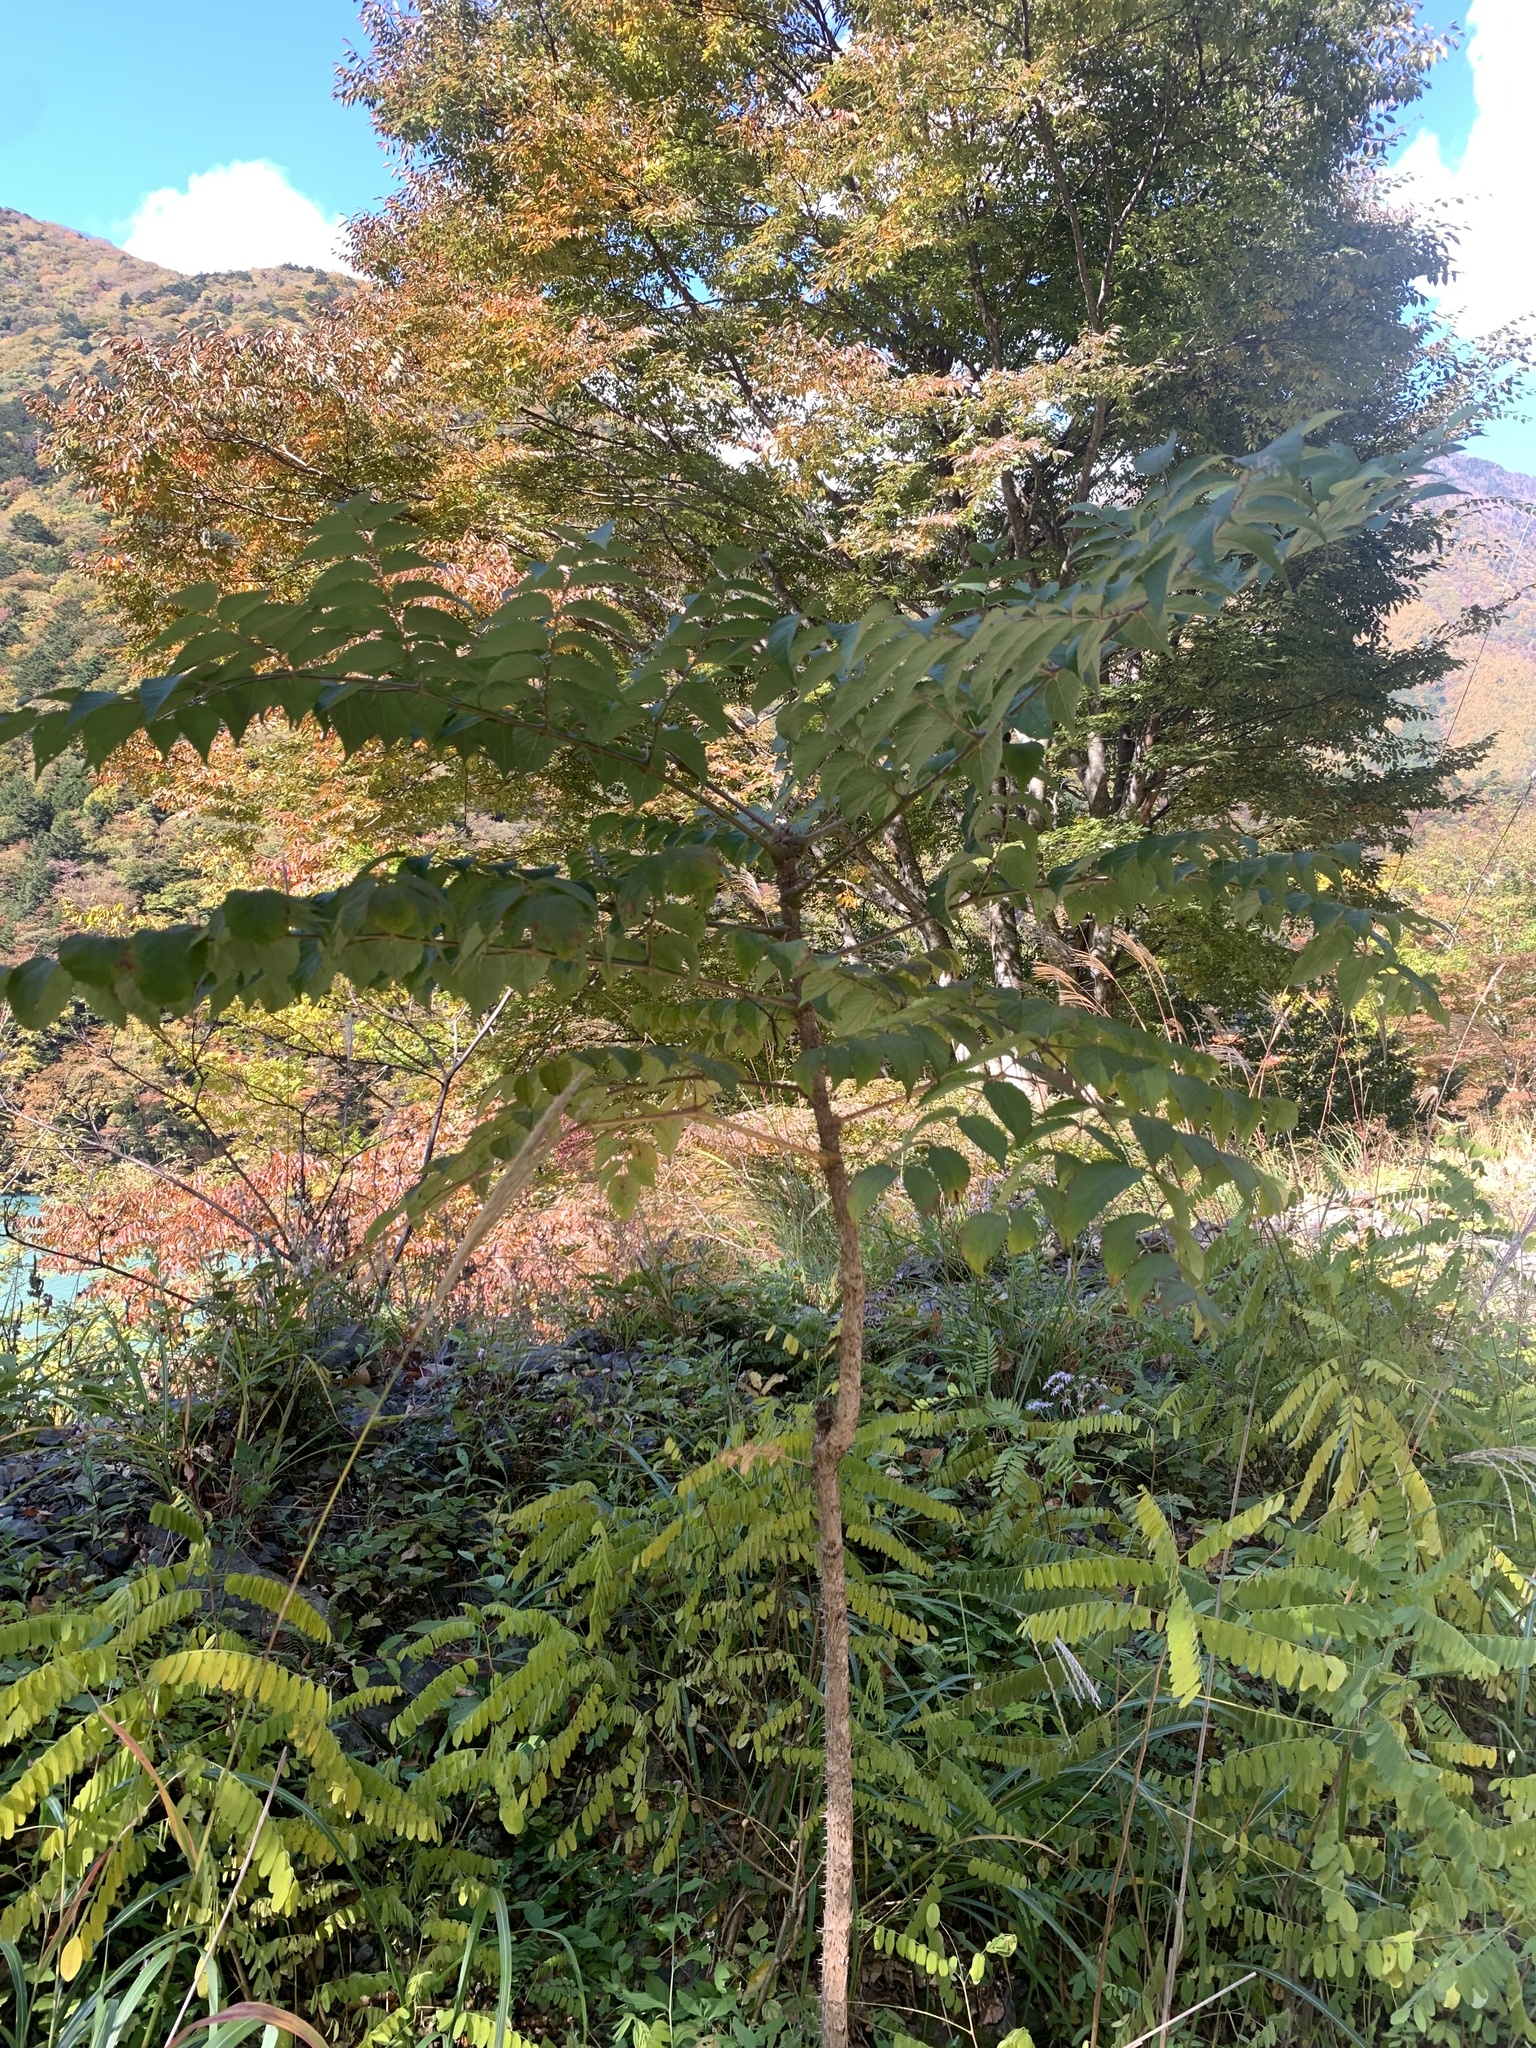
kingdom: Plantae
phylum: Tracheophyta
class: Magnoliopsida
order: Apiales
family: Araliaceae
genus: Aralia
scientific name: Aralia elata
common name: Japanese angelica-tree
